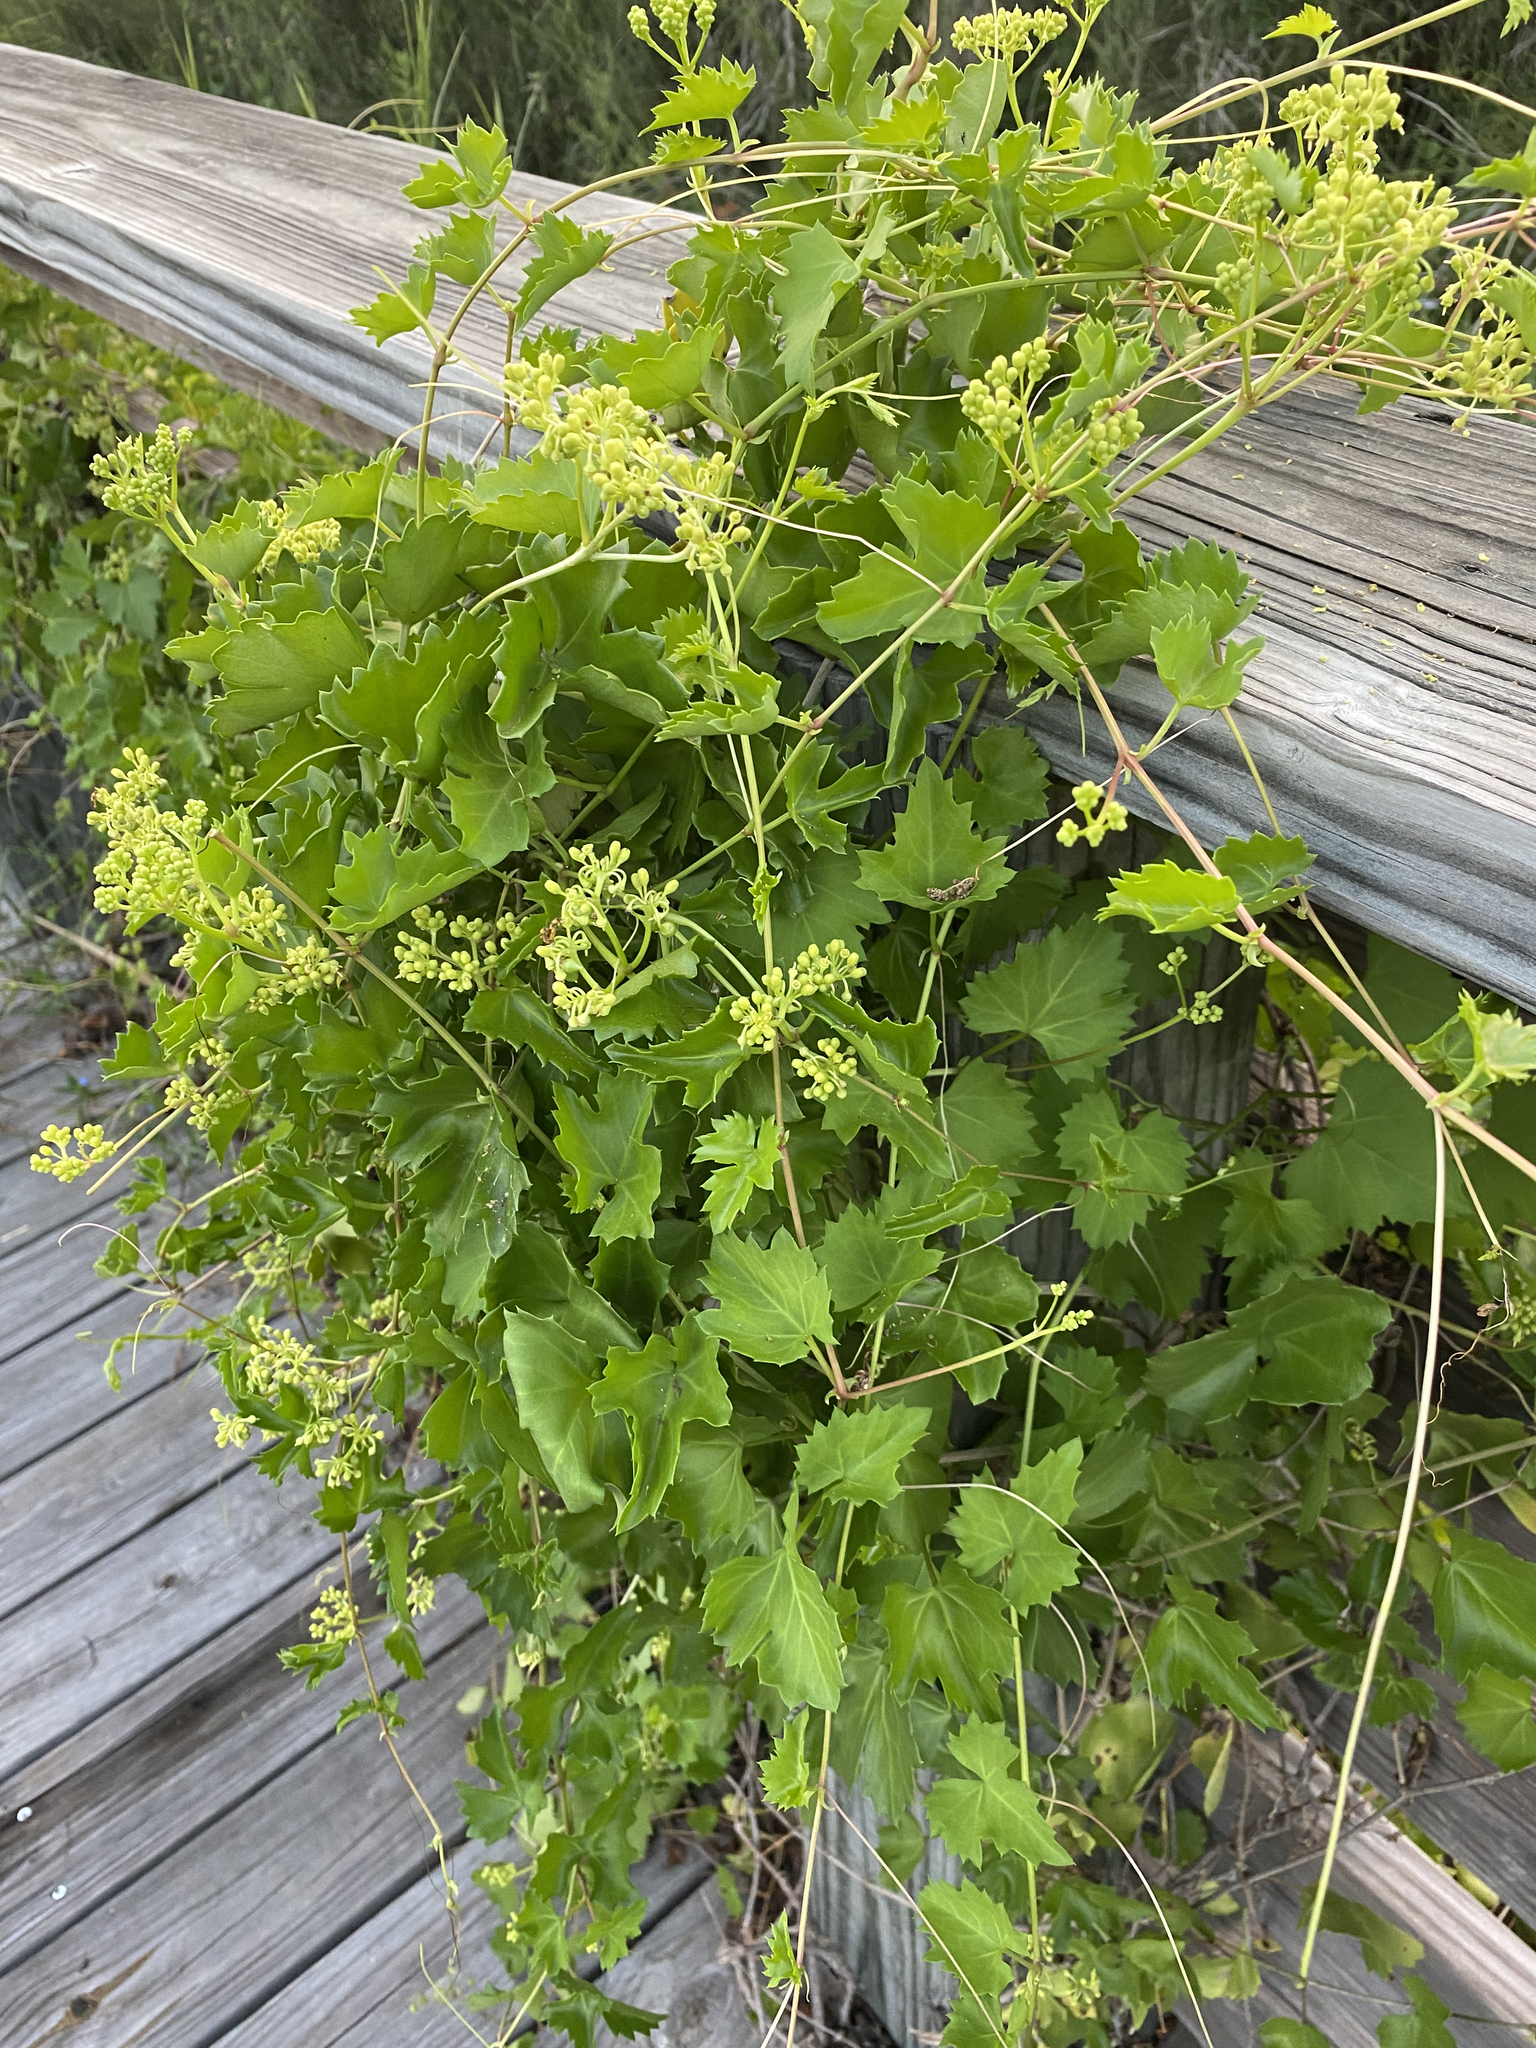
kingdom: Plantae
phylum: Tracheophyta
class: Magnoliopsida
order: Vitales
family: Vitaceae
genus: Cissus
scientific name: Cissus trifoliata
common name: Vine-sorrel
